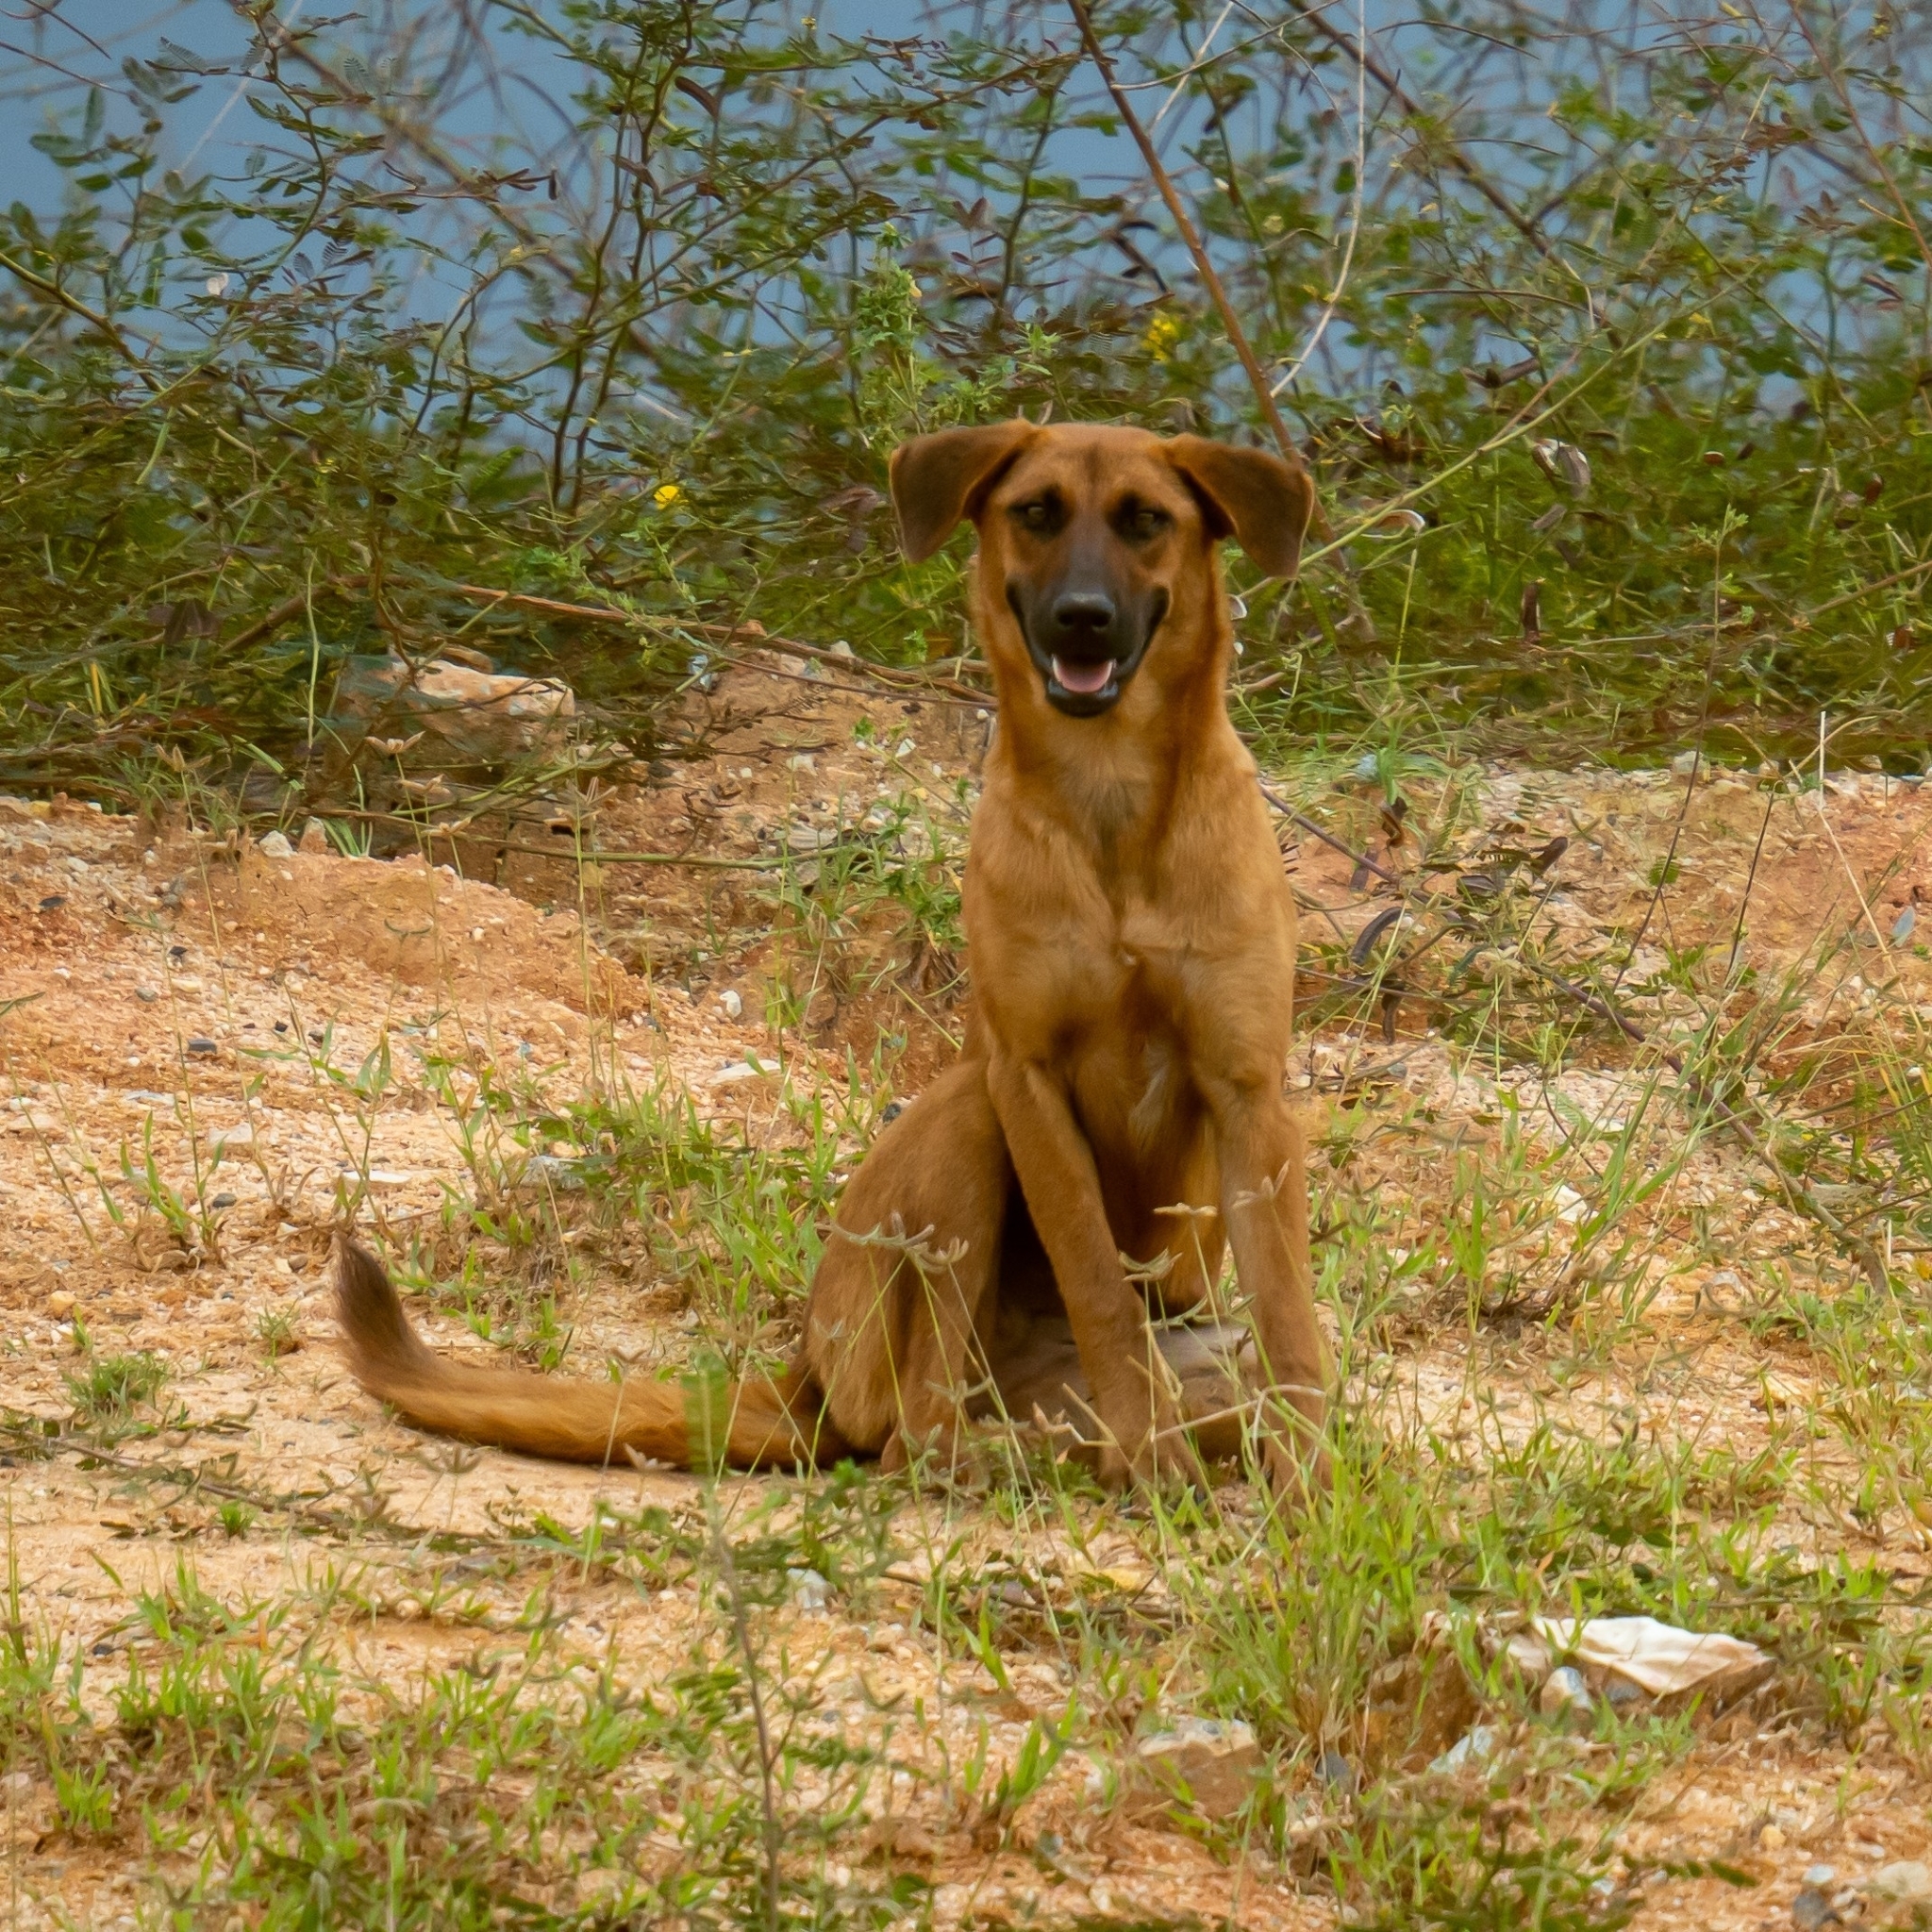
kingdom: Animalia
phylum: Chordata
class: Mammalia
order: Carnivora
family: Canidae
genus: Canis
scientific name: Canis lupus
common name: Gray wolf
